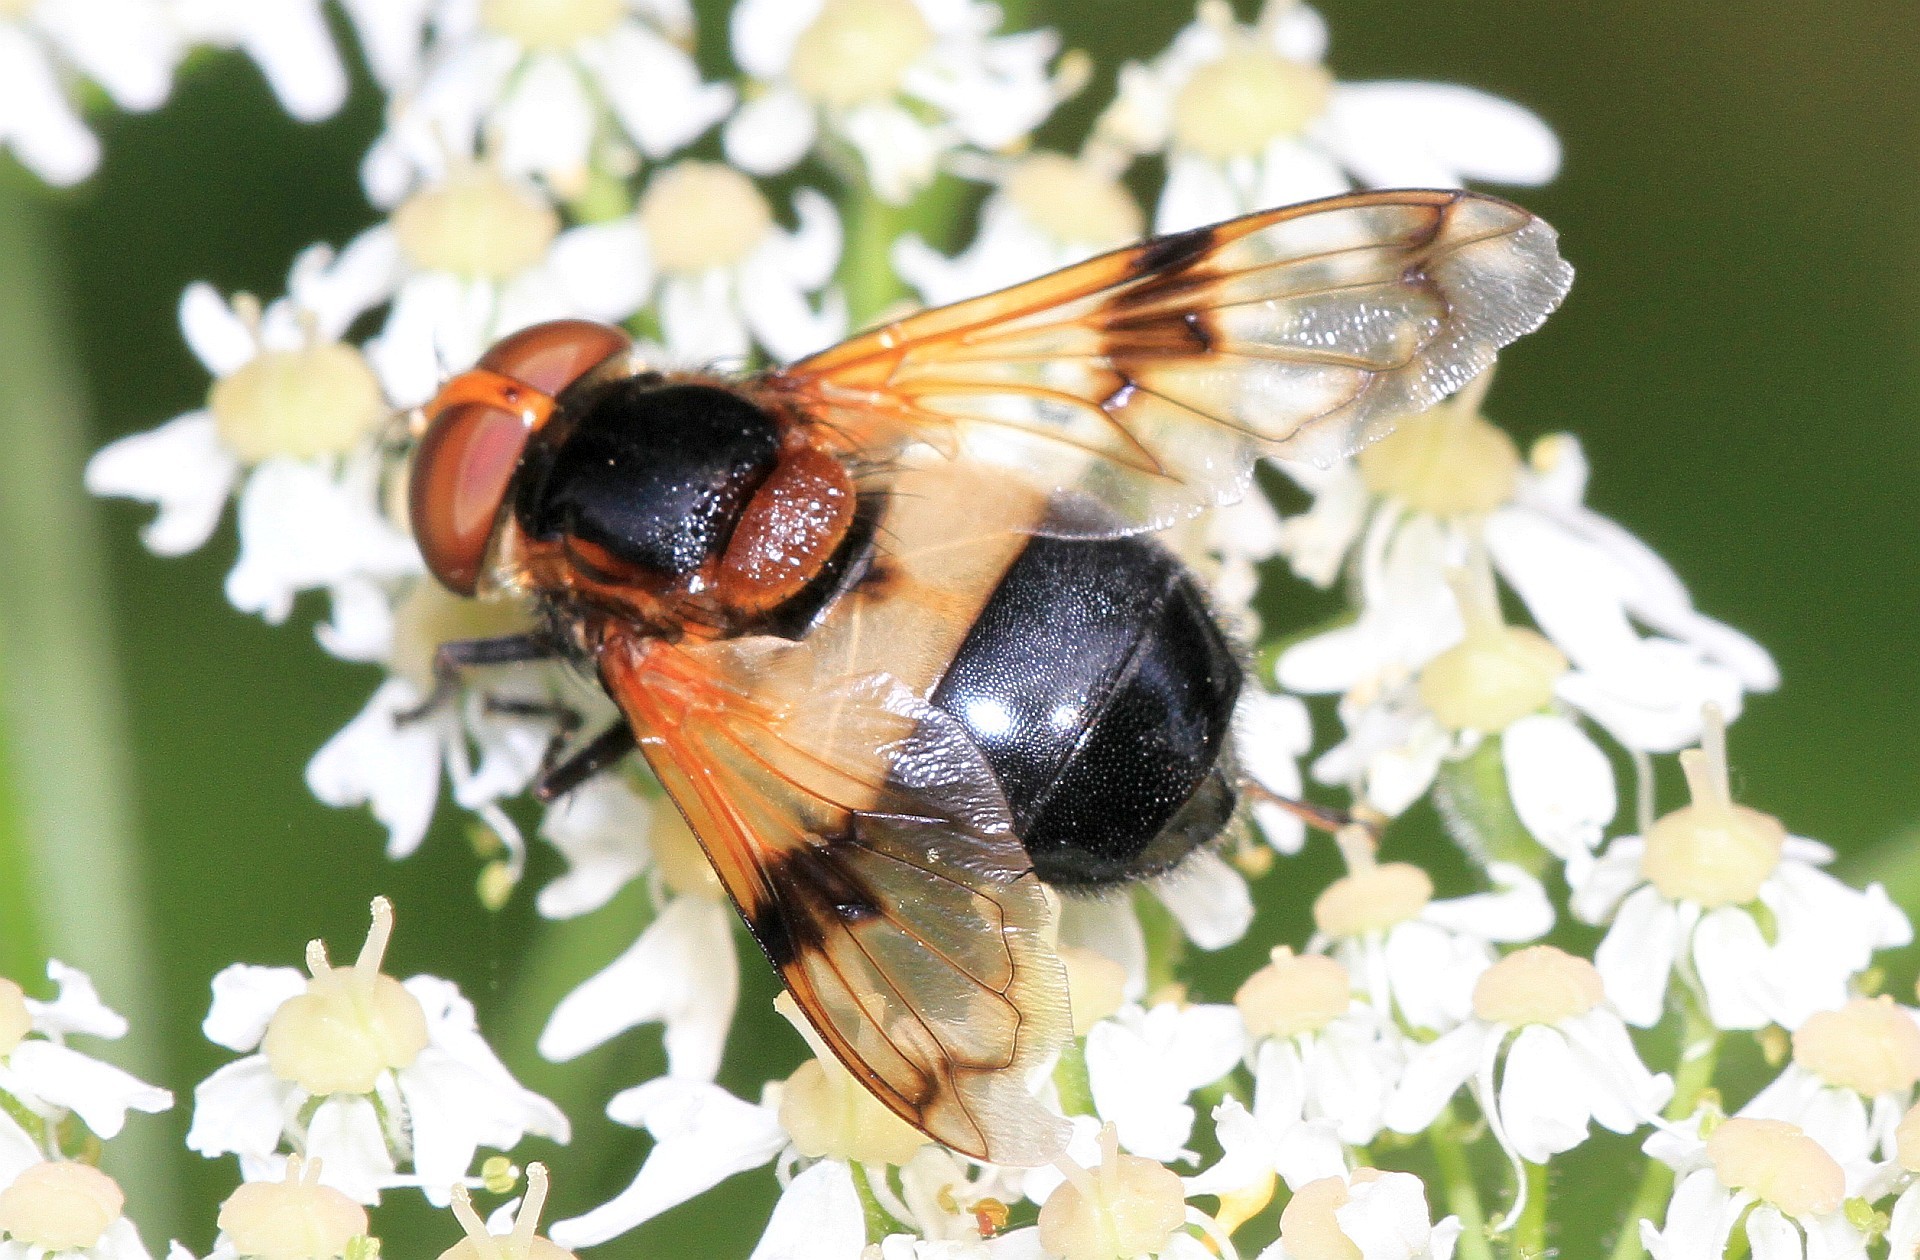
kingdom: Animalia
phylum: Arthropoda
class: Insecta
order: Diptera
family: Syrphidae
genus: Volucella
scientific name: Volucella pellucens
